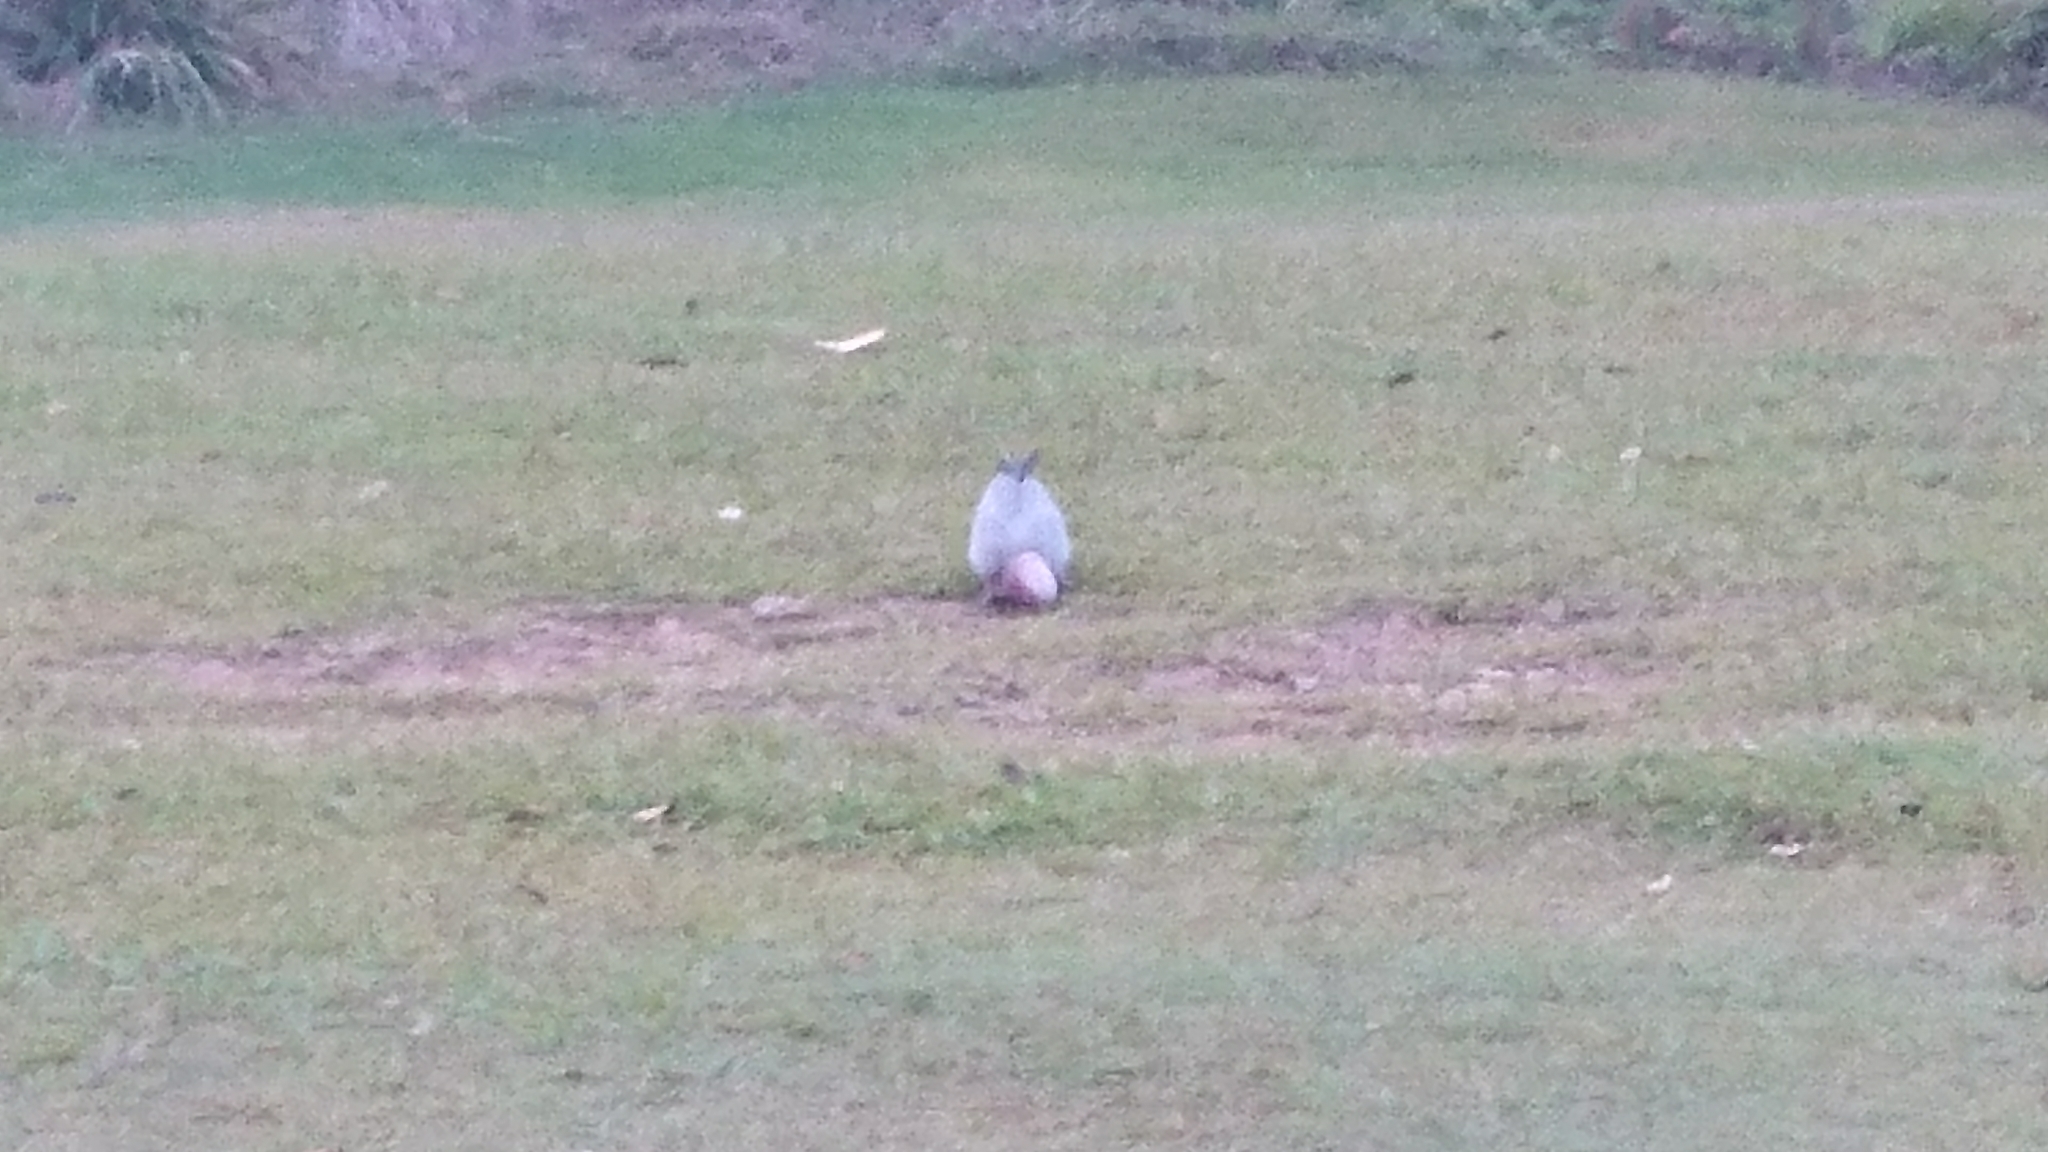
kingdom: Animalia
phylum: Chordata
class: Aves
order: Psittaciformes
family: Psittacidae
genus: Eolophus
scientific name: Eolophus roseicapilla
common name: Galah
